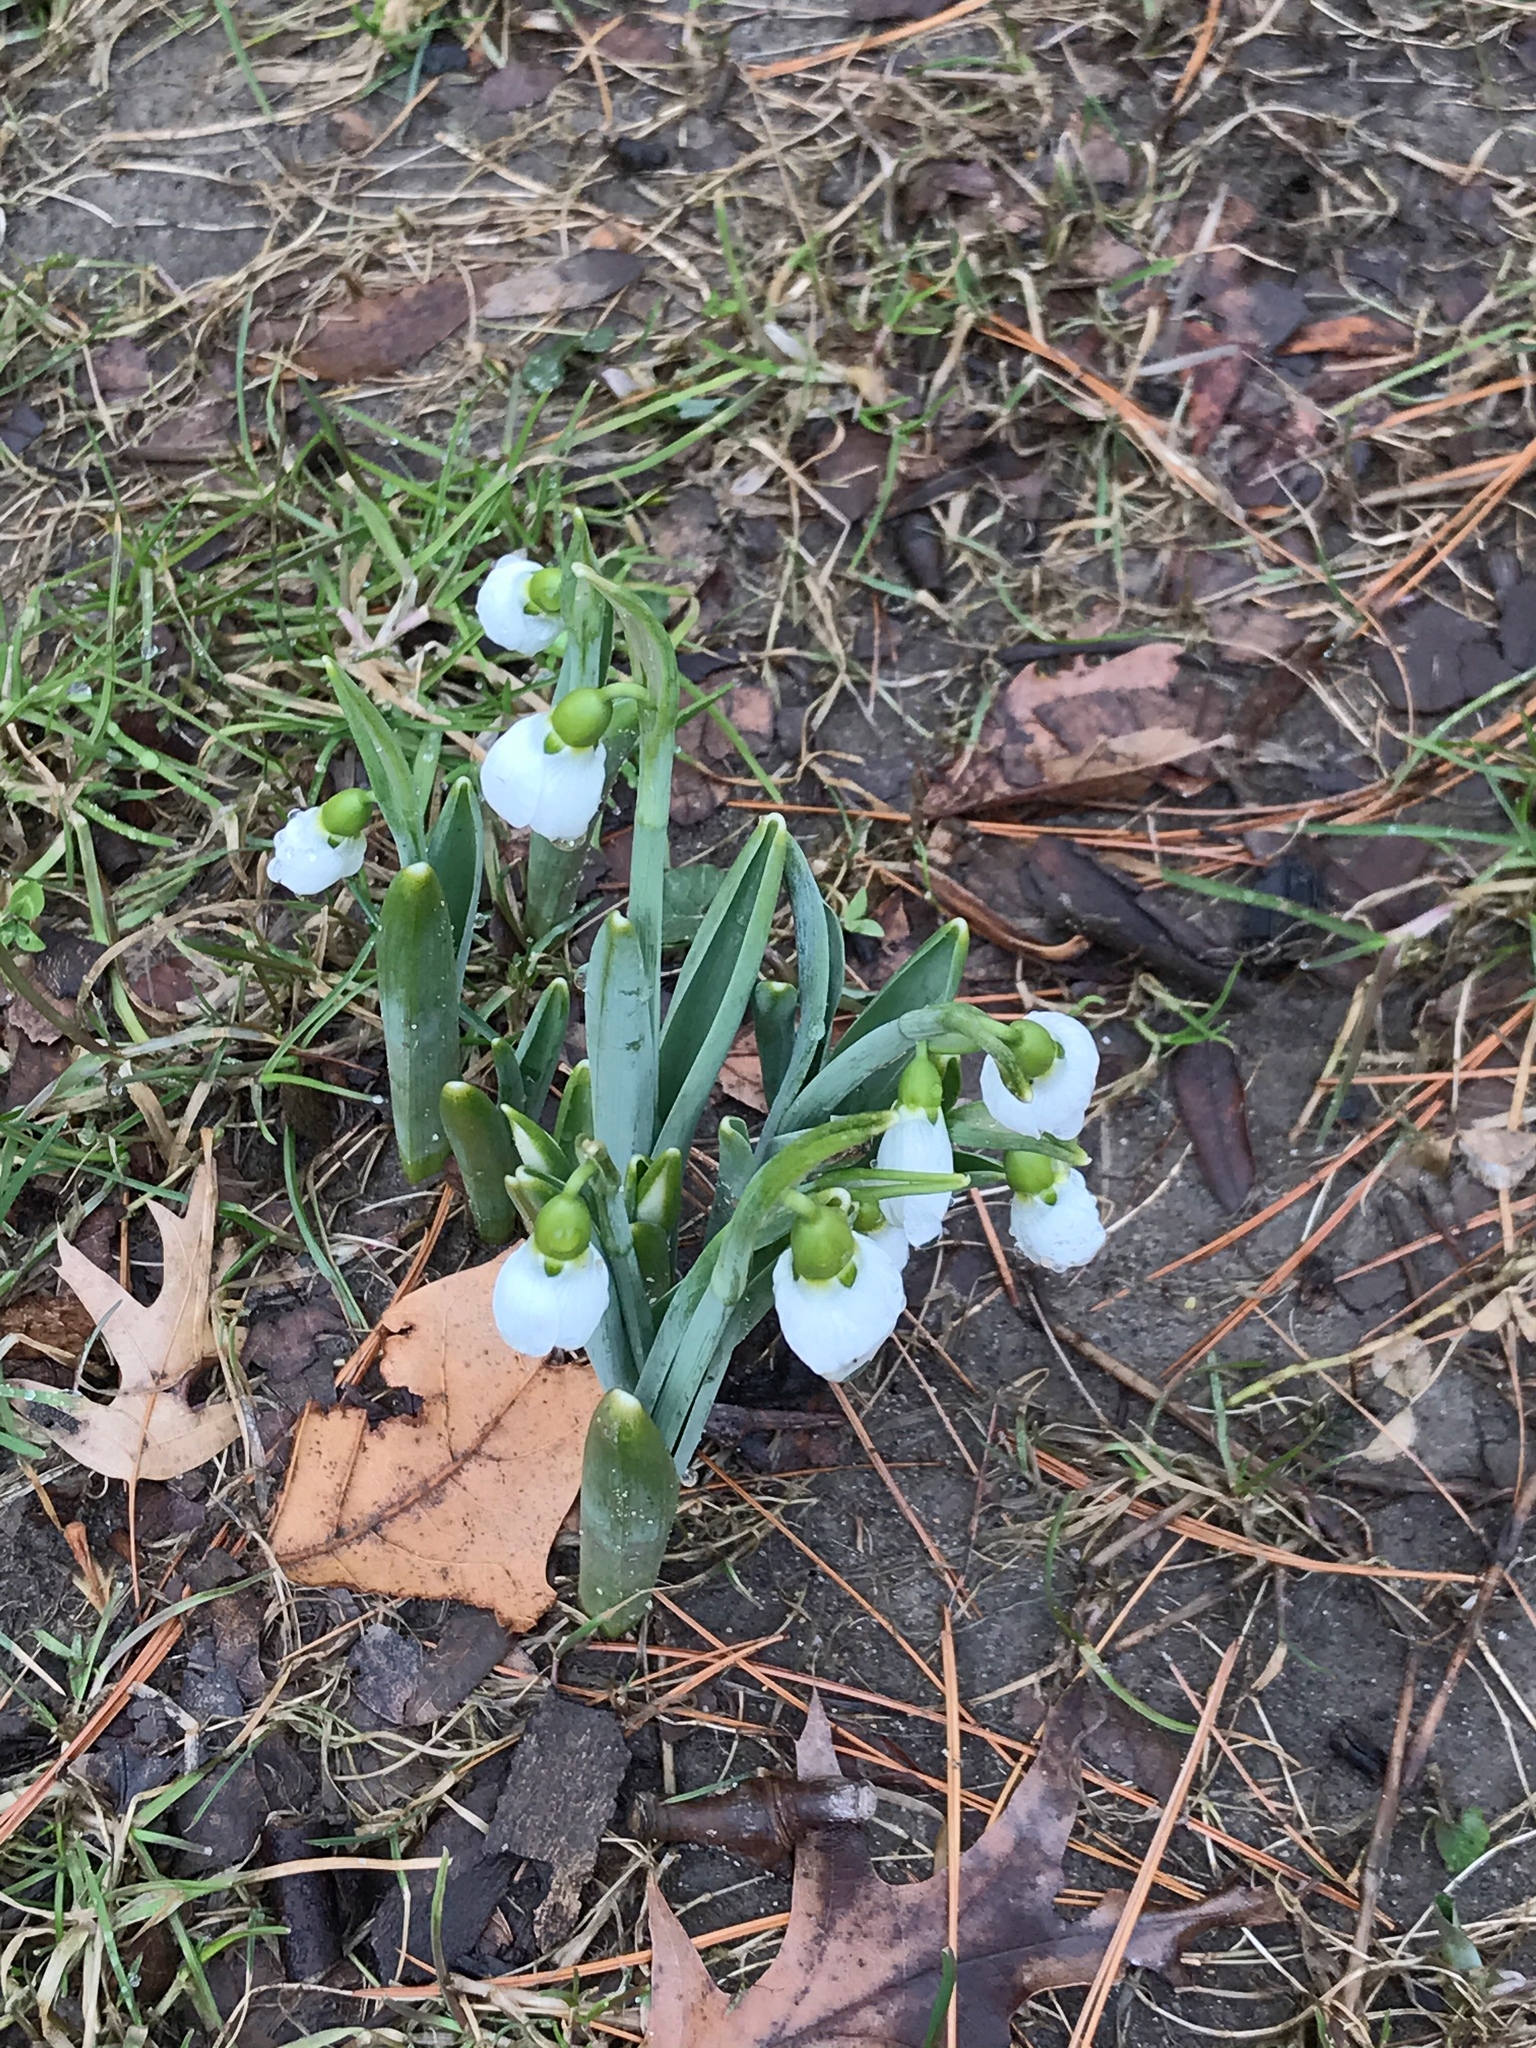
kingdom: Plantae
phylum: Tracheophyta
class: Liliopsida
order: Asparagales
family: Amaryllidaceae
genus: Galanthus
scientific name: Galanthus elwesii
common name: Greater snowdrop
